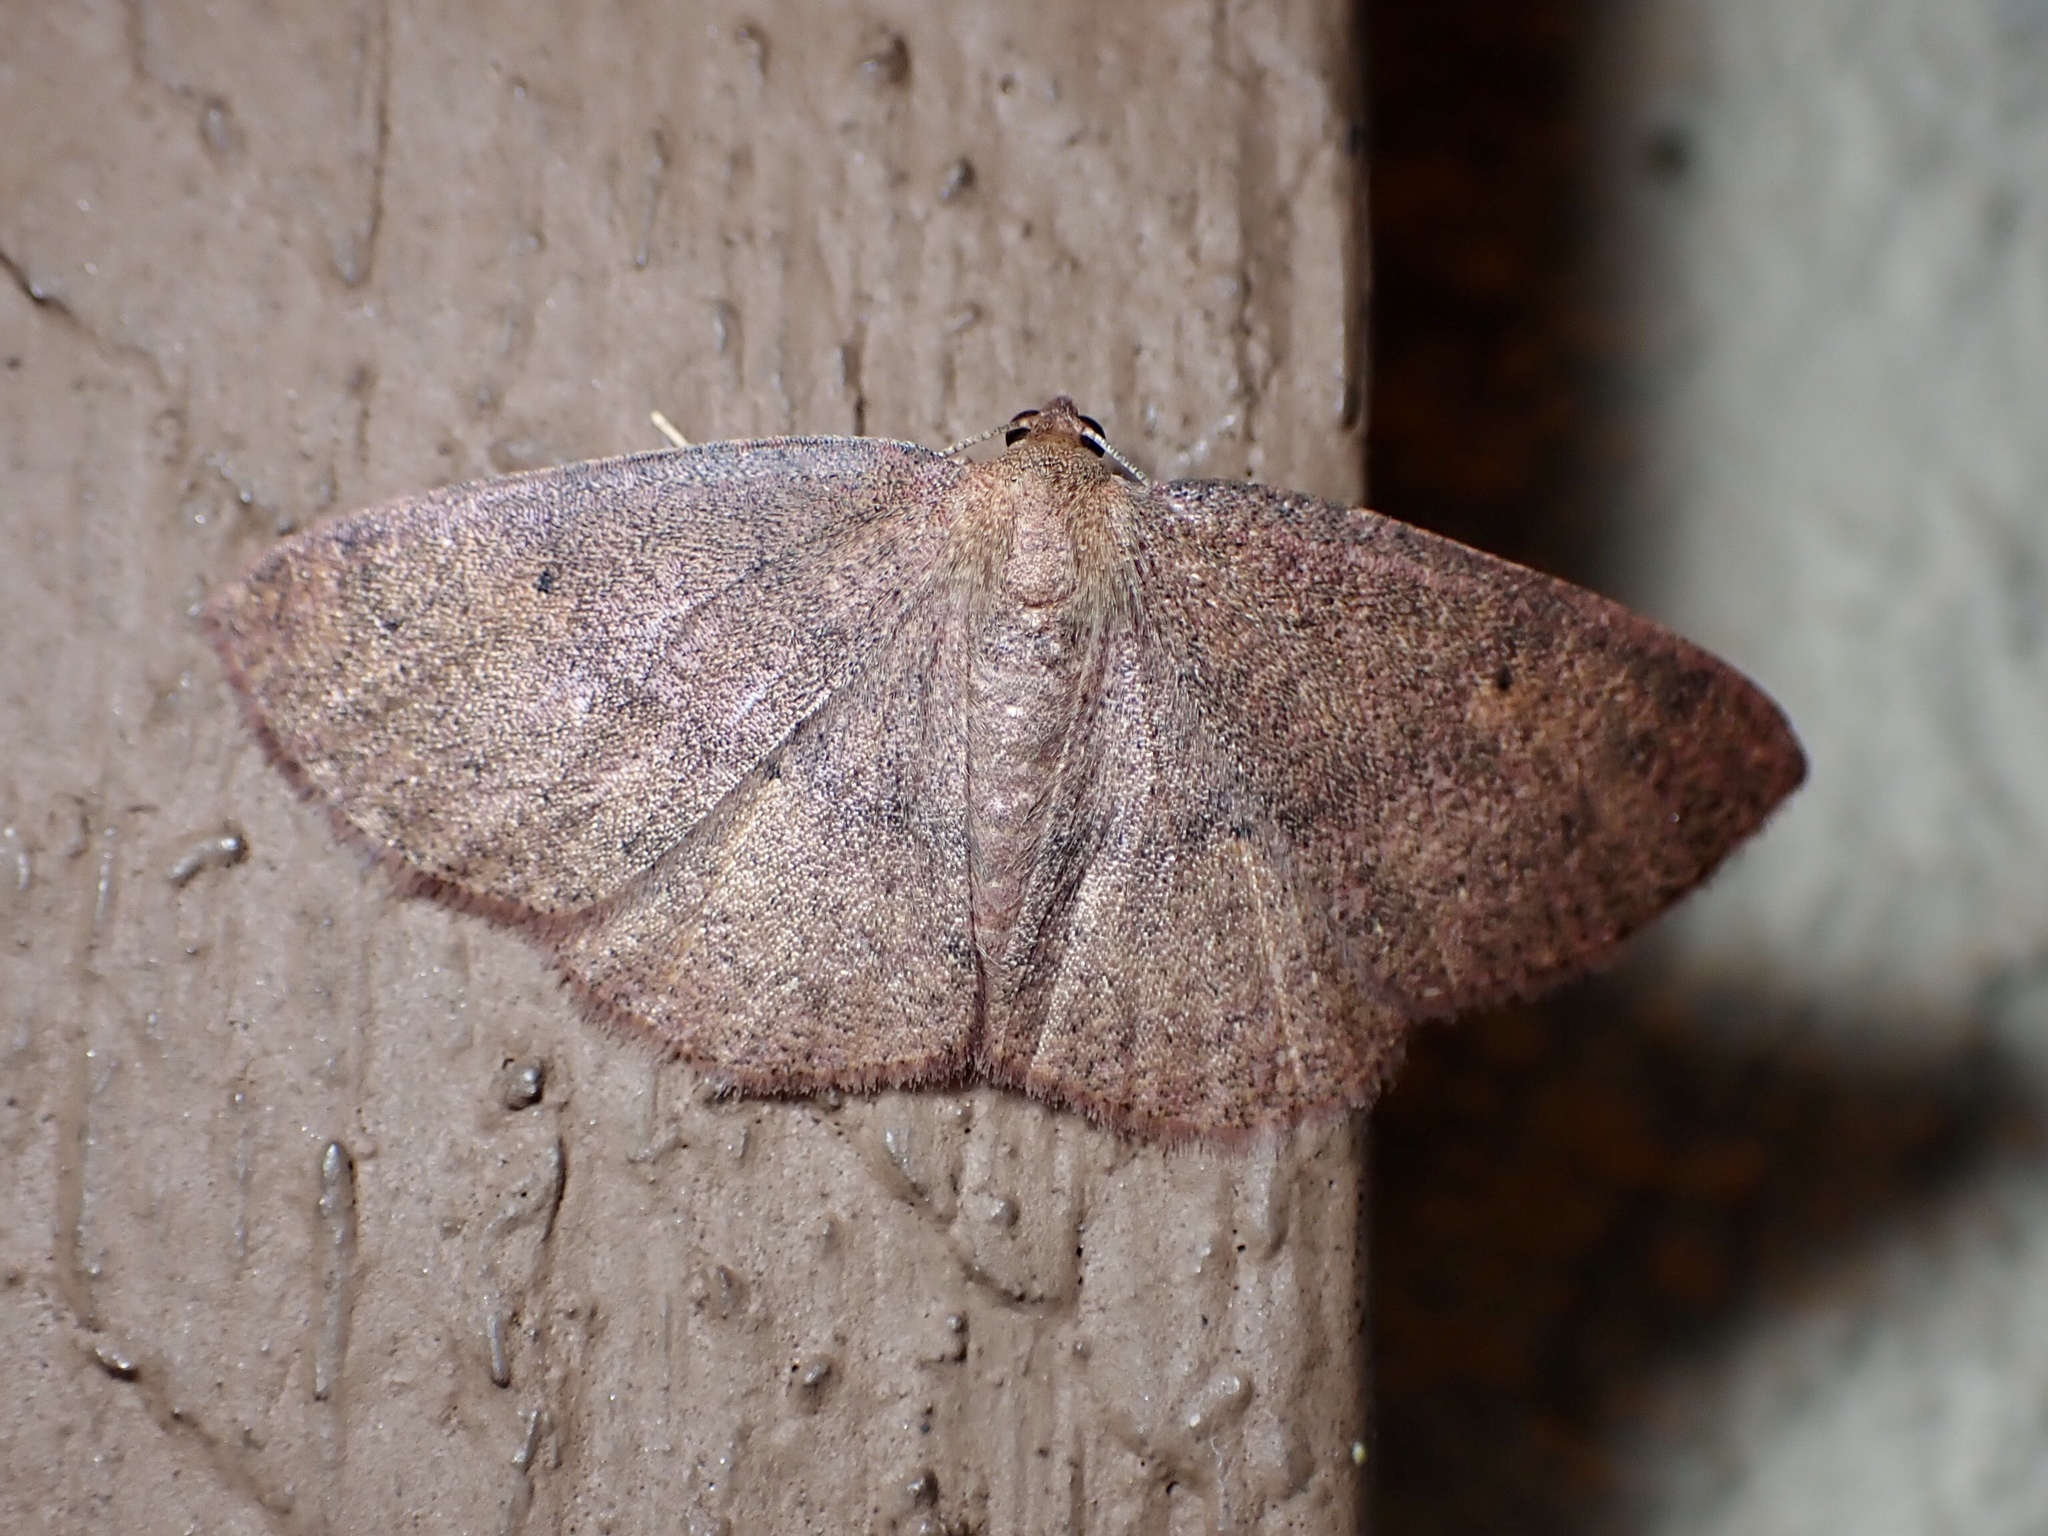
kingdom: Animalia
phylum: Arthropoda
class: Insecta
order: Lepidoptera
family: Geometridae
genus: Ilexia
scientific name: Ilexia intractata
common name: Black-dotted ruddy moth
